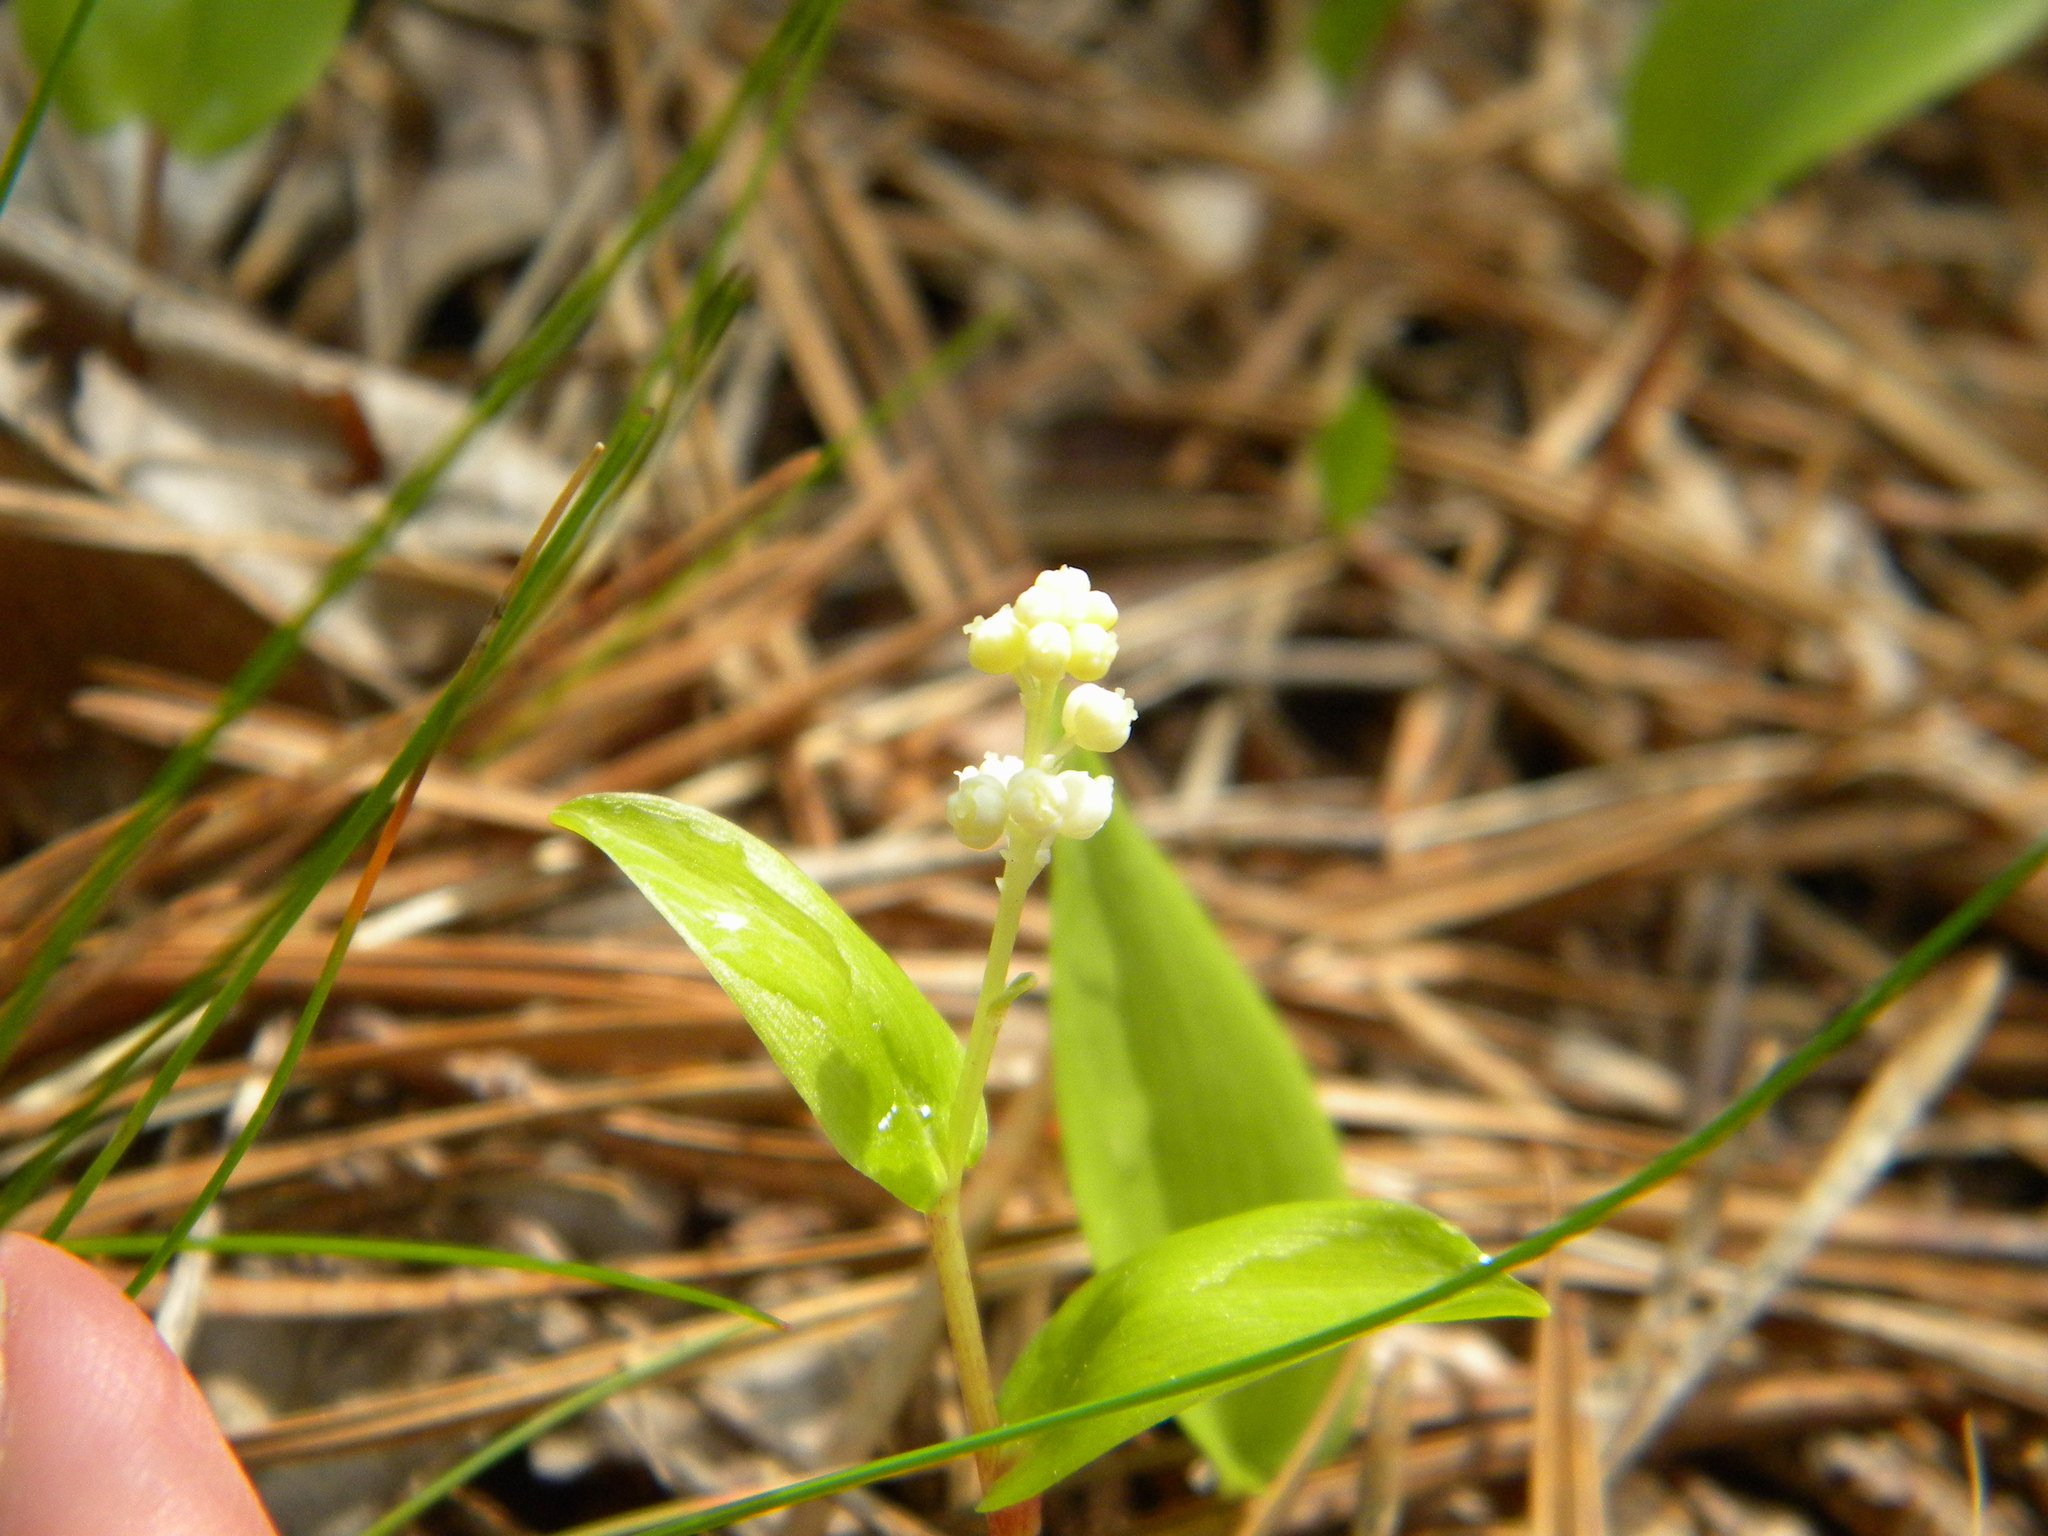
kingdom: Plantae
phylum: Tracheophyta
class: Liliopsida
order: Asparagales
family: Asparagaceae
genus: Maianthemum
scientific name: Maianthemum canadense
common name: False lily-of-the-valley
